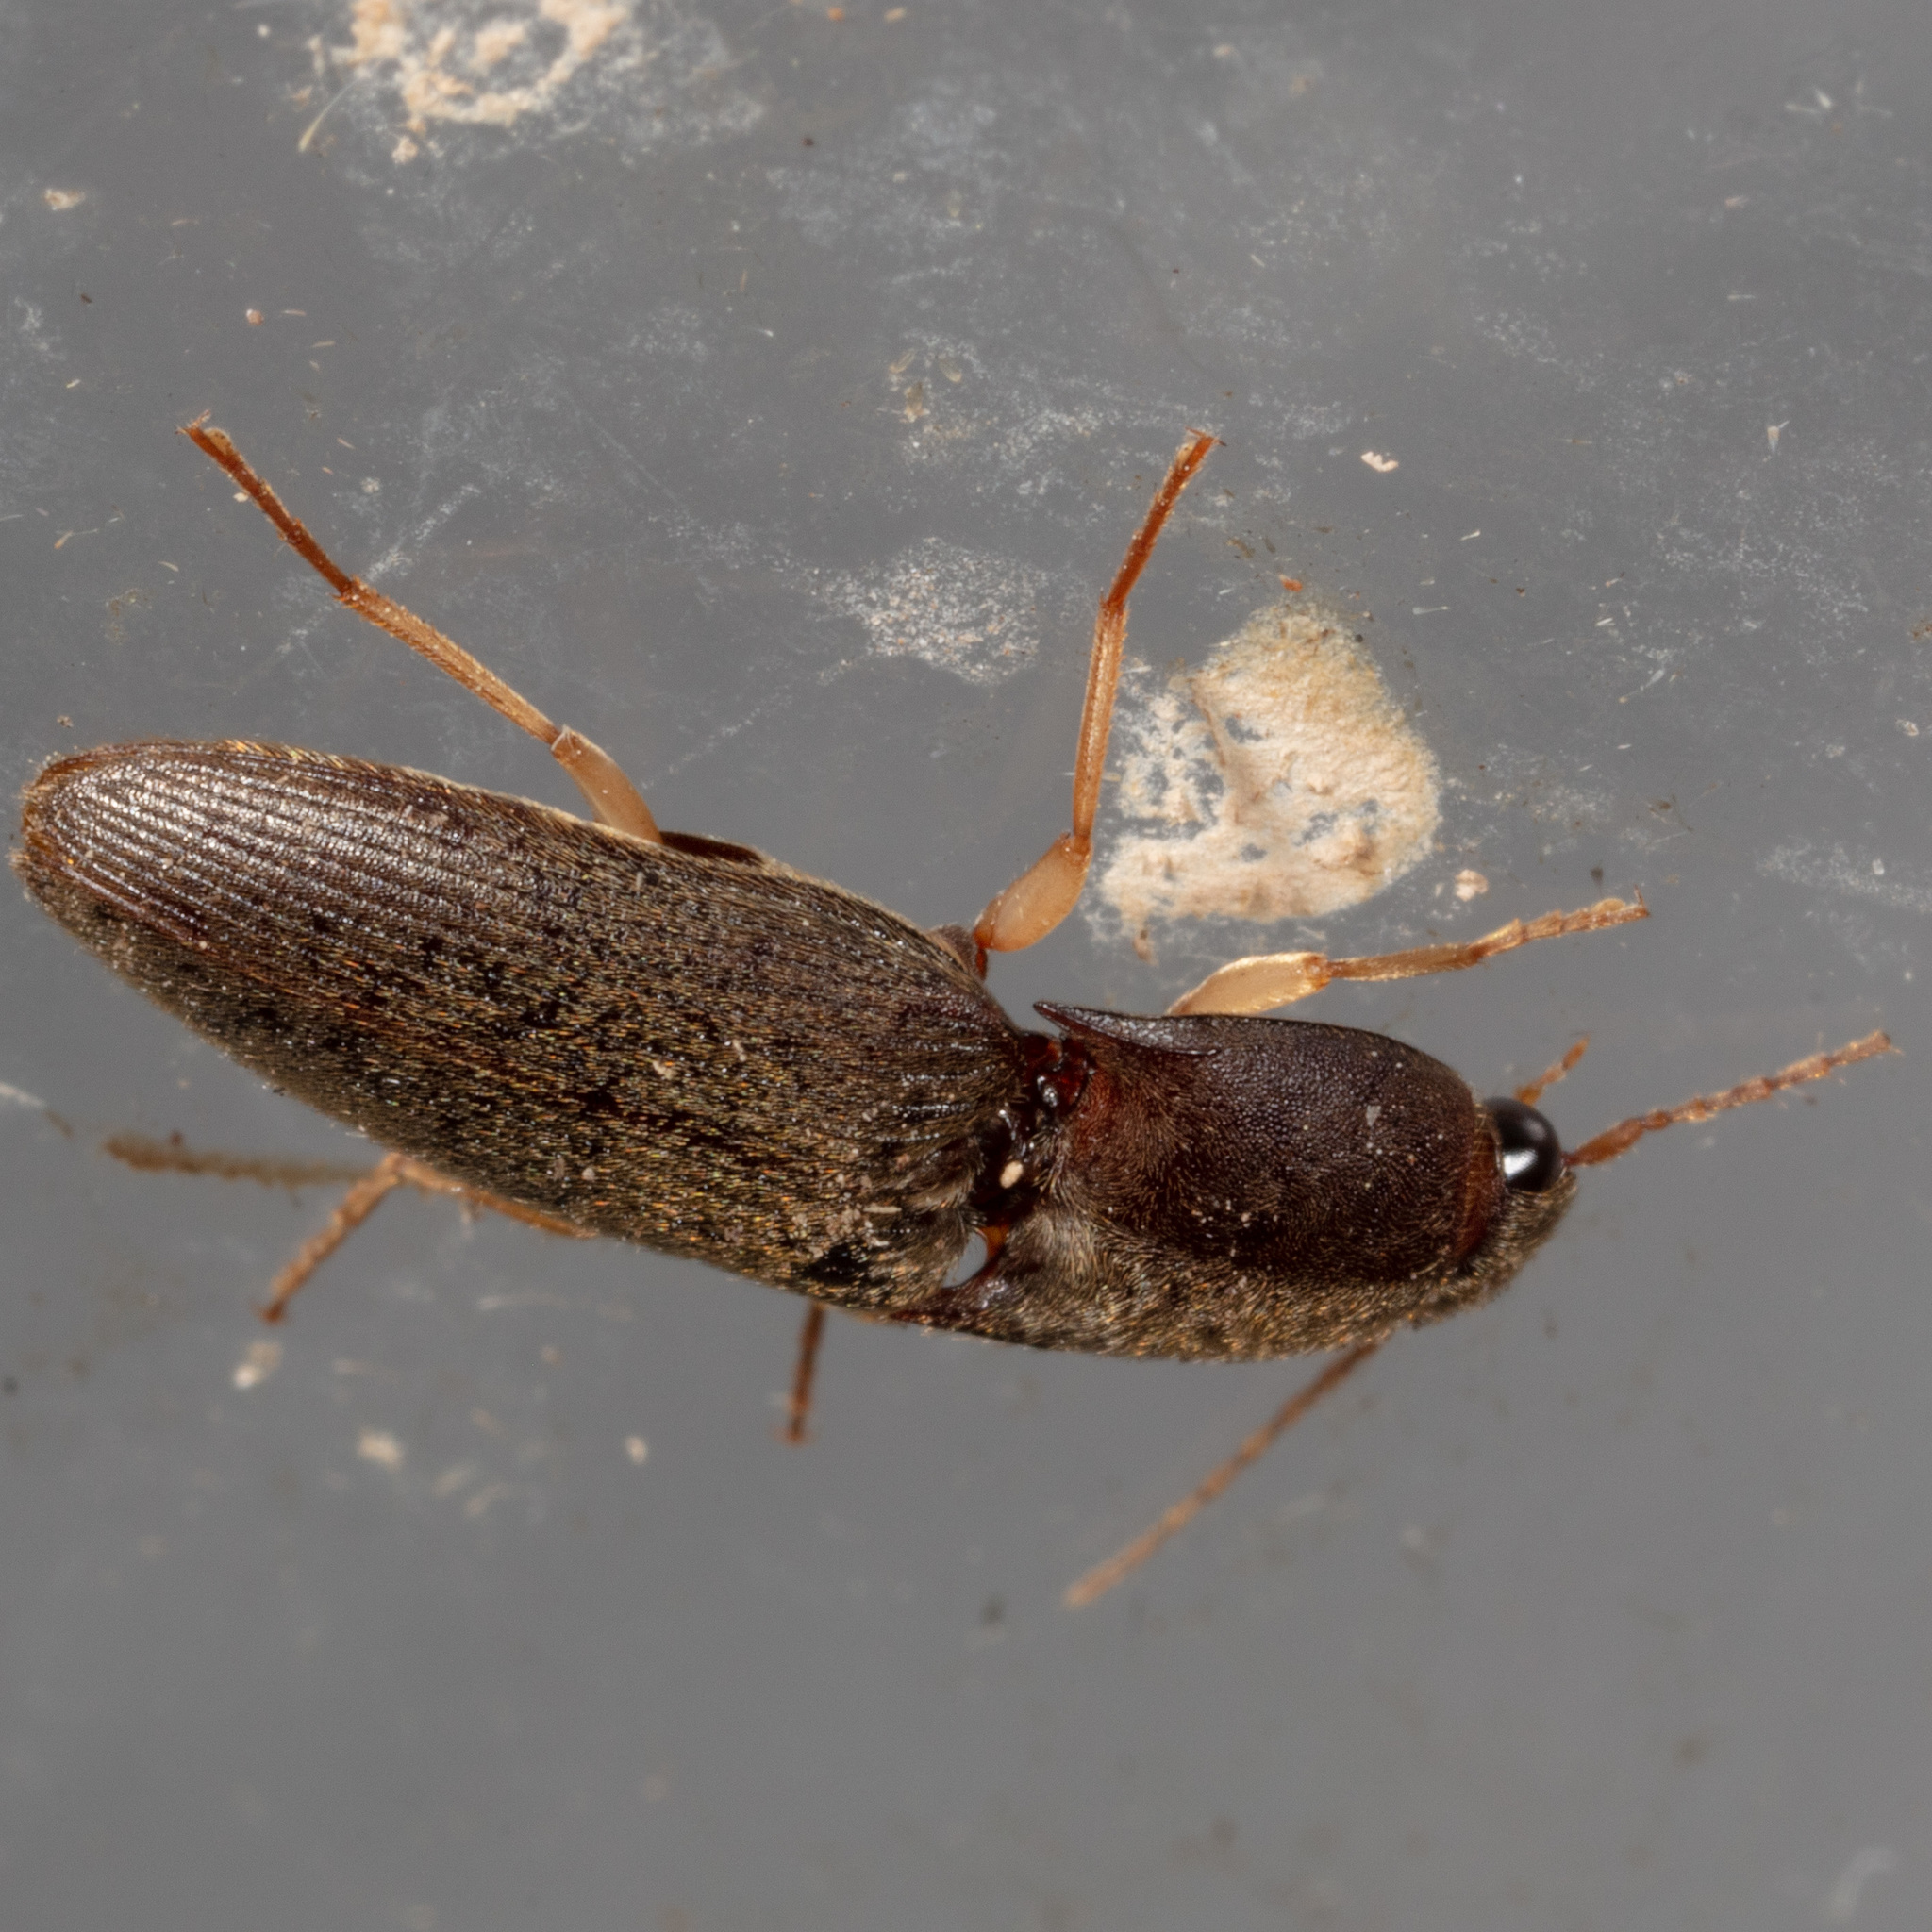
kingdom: Animalia
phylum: Arthropoda
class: Insecta
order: Coleoptera
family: Elateridae
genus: Conoderus
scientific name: Conoderus exsul
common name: Click beetle
